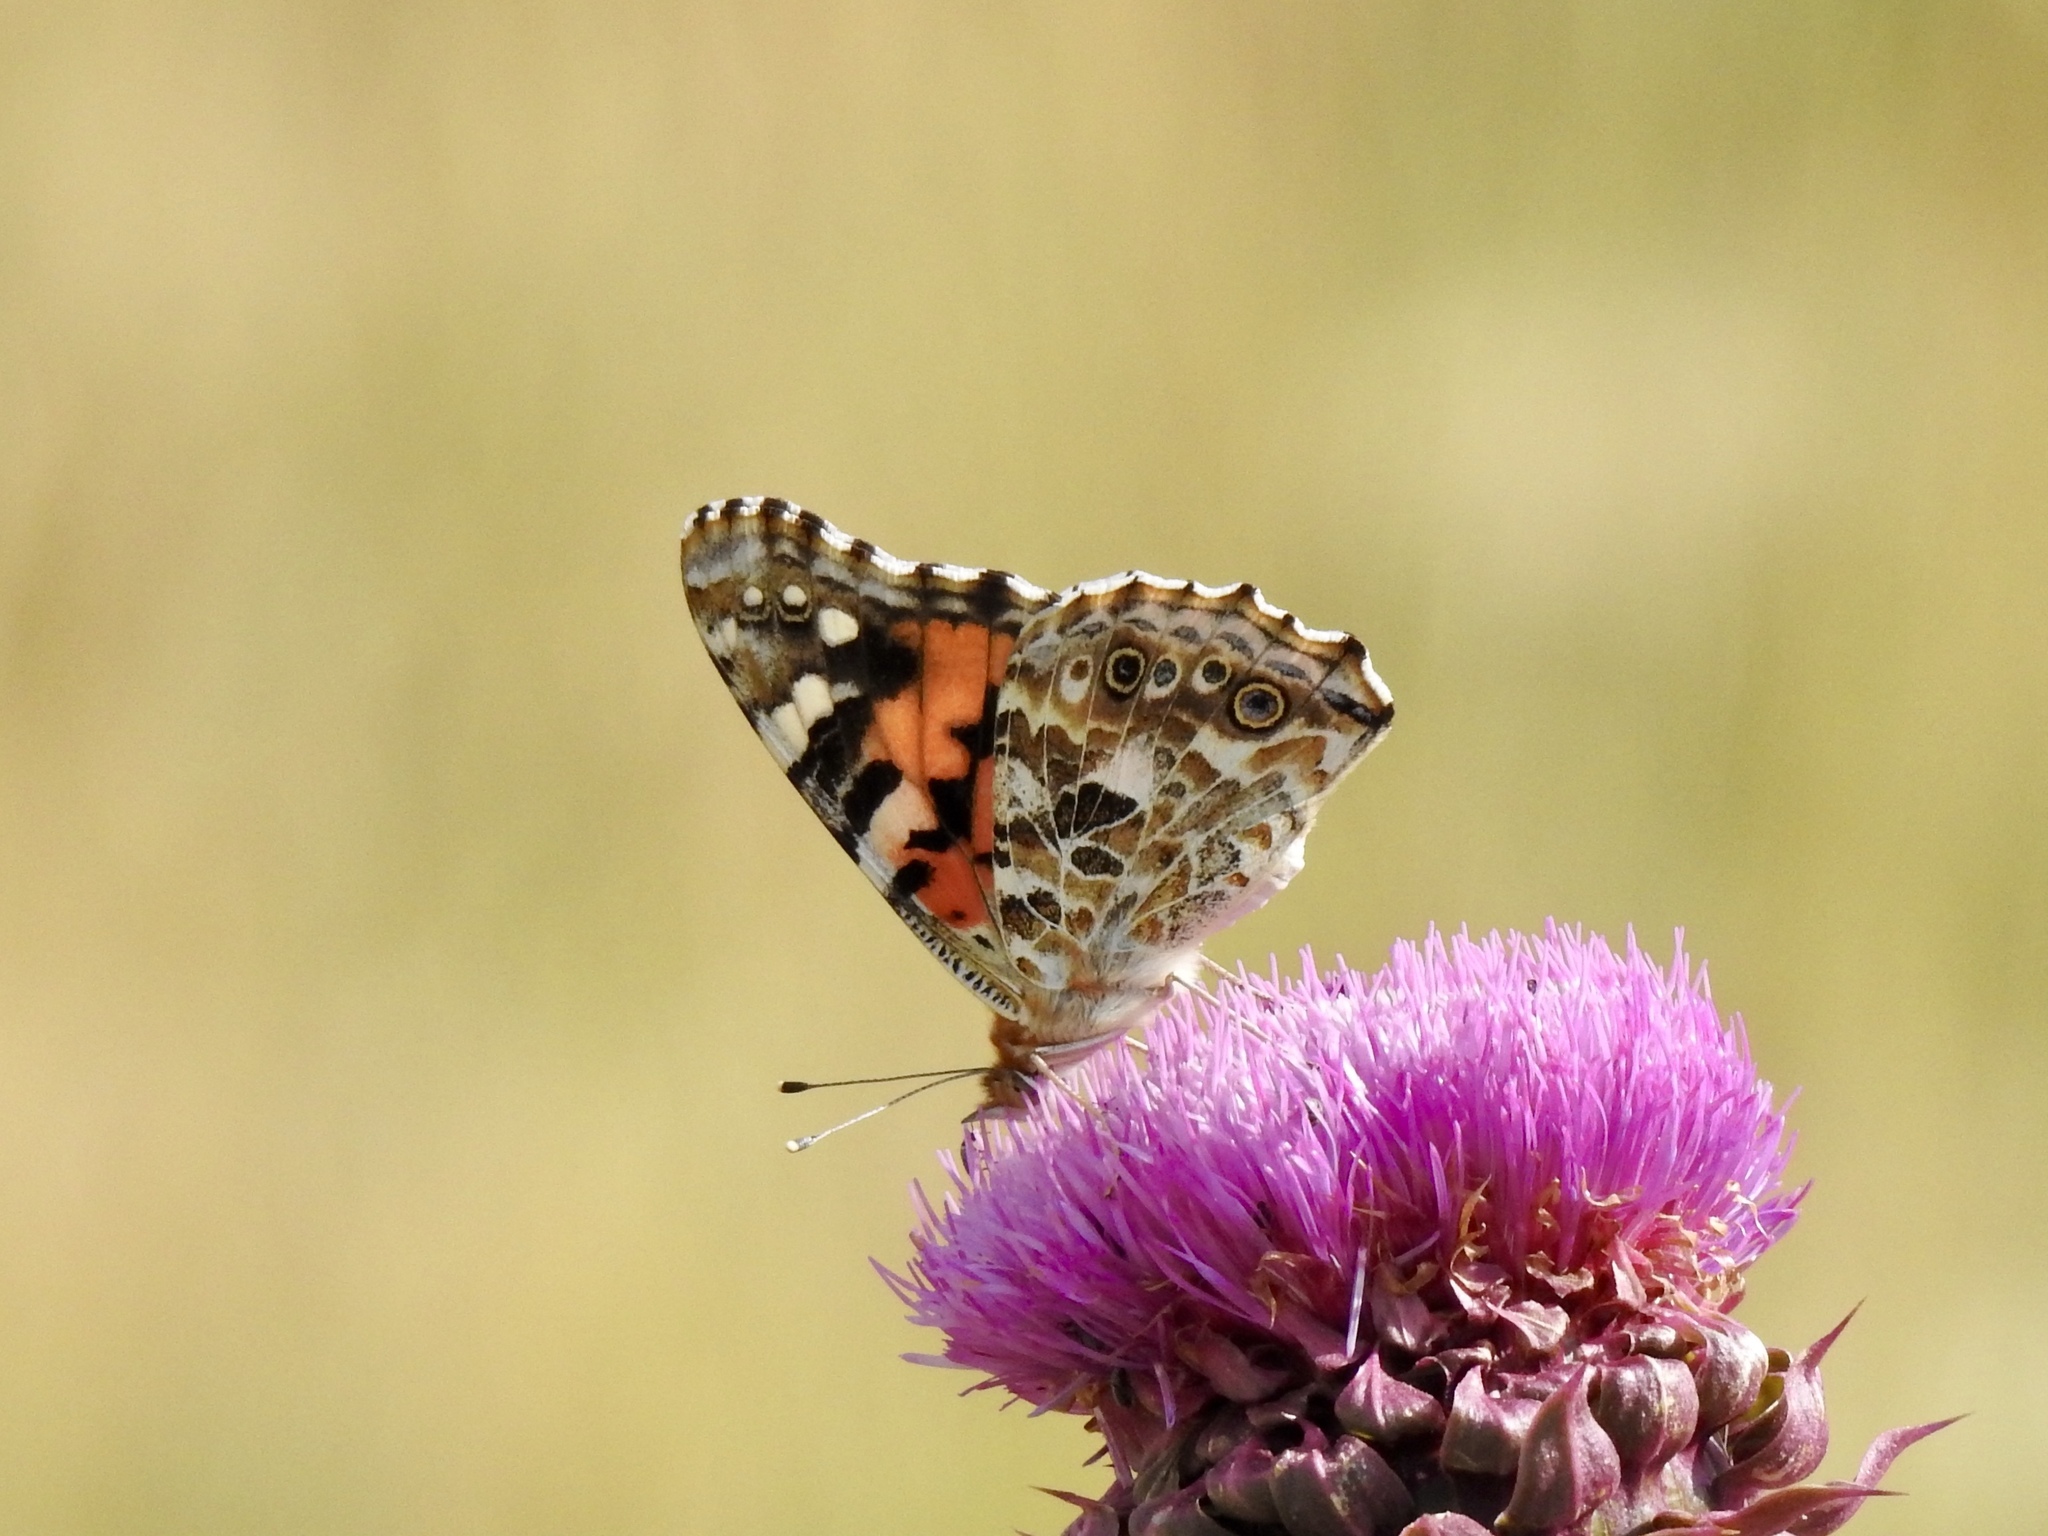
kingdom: Animalia
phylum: Arthropoda
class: Insecta
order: Lepidoptera
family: Nymphalidae
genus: Vanessa
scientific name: Vanessa cardui
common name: Painted lady
